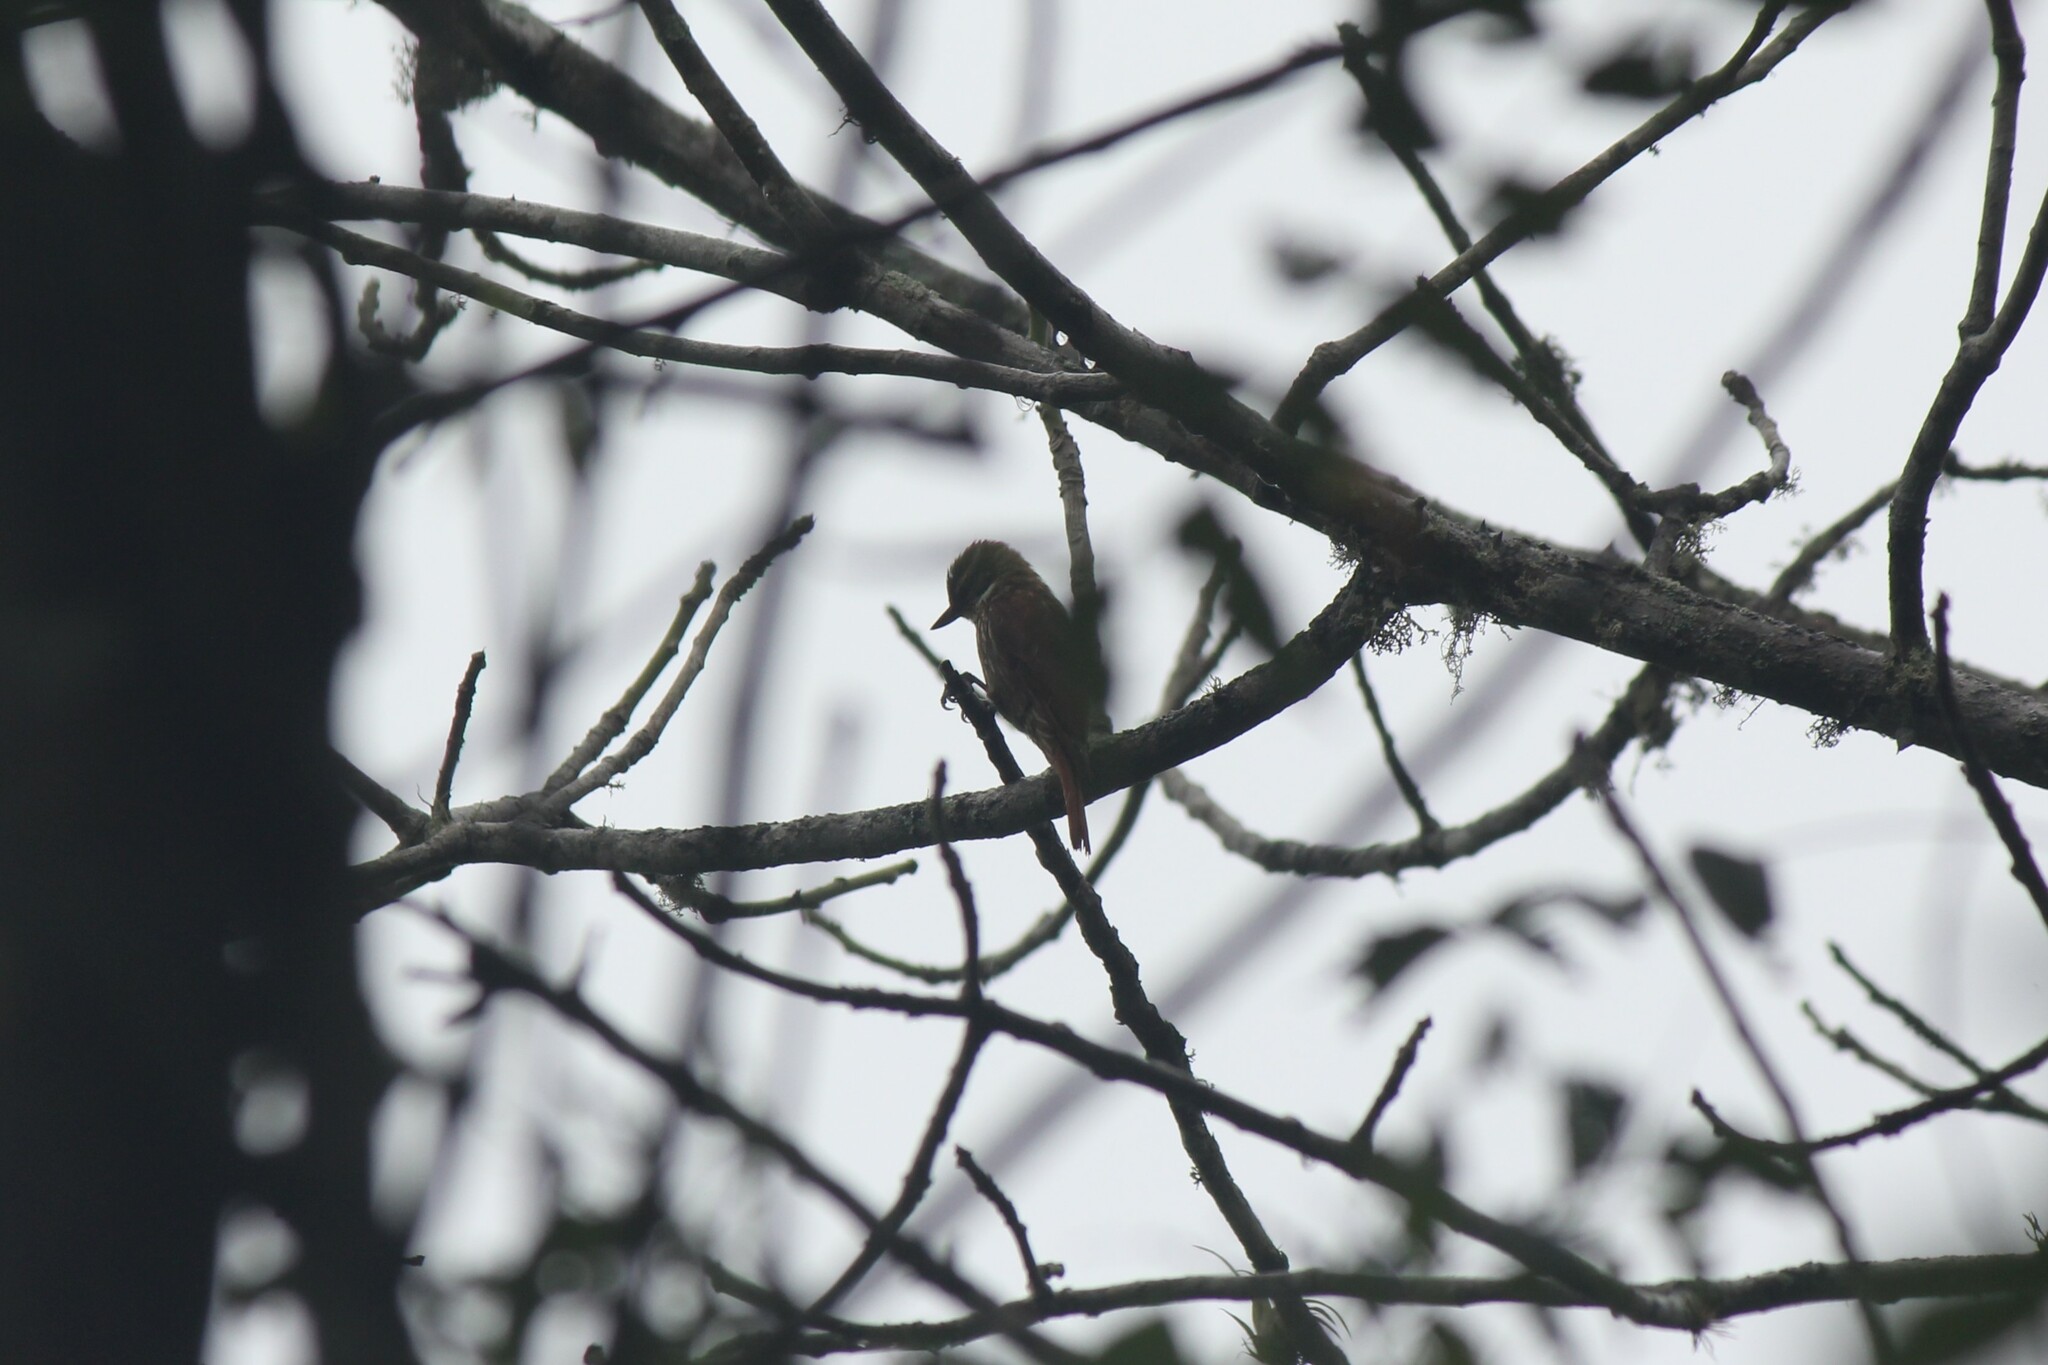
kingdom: Animalia
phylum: Chordata
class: Aves
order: Passeriformes
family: Furnariidae
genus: Xenops
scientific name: Xenops rutilans
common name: Streaked xenops
